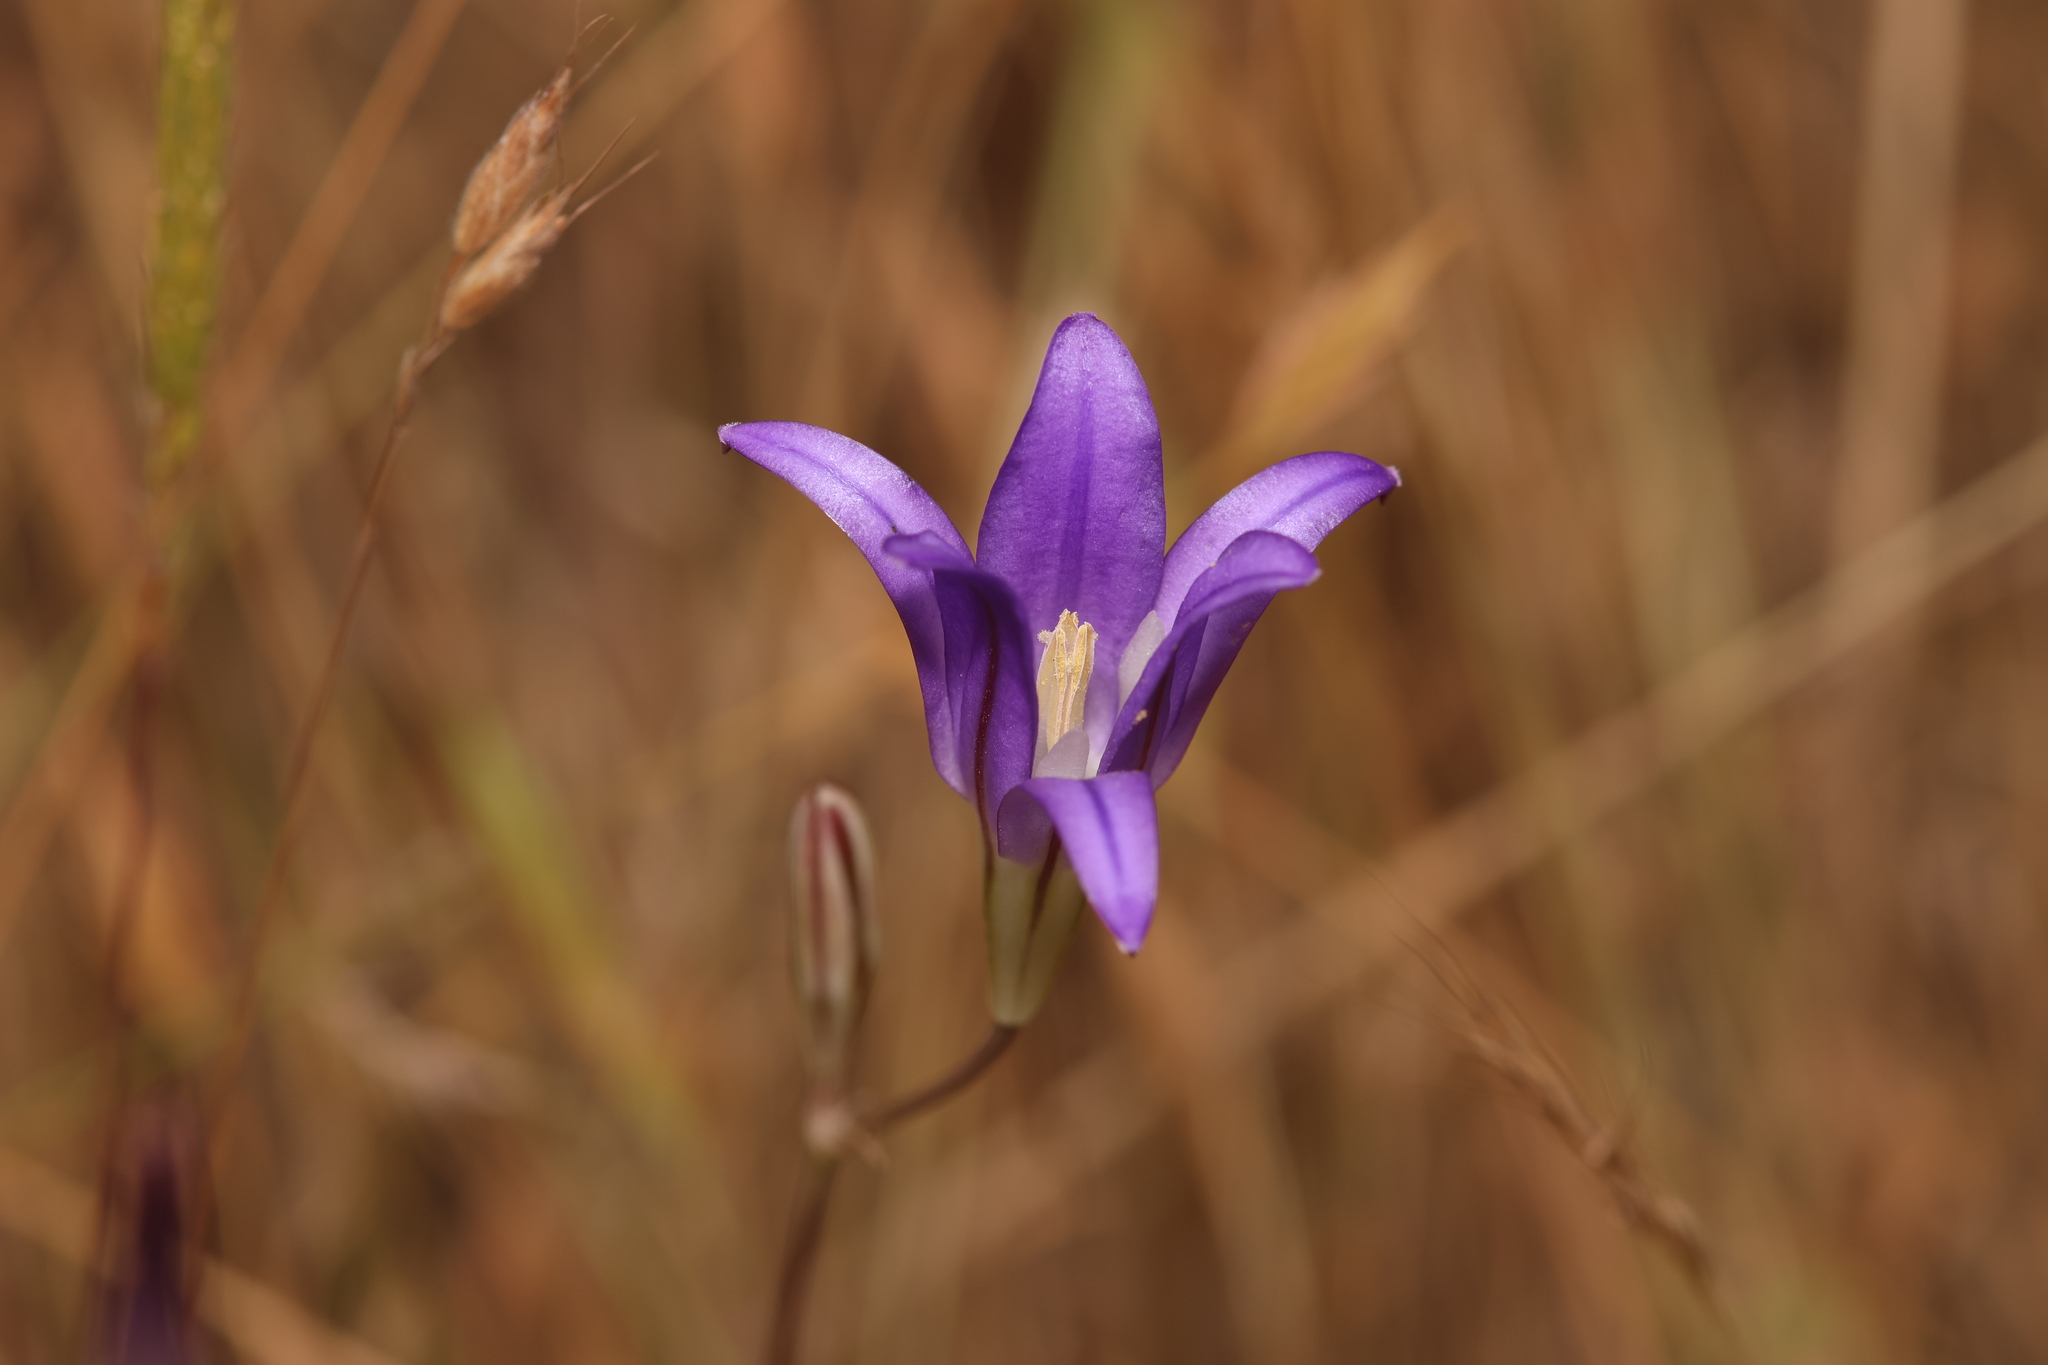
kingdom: Plantae
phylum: Tracheophyta
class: Liliopsida
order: Asparagales
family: Asparagaceae
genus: Brodiaea
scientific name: Brodiaea elegans
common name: Elegant cluster-lily
